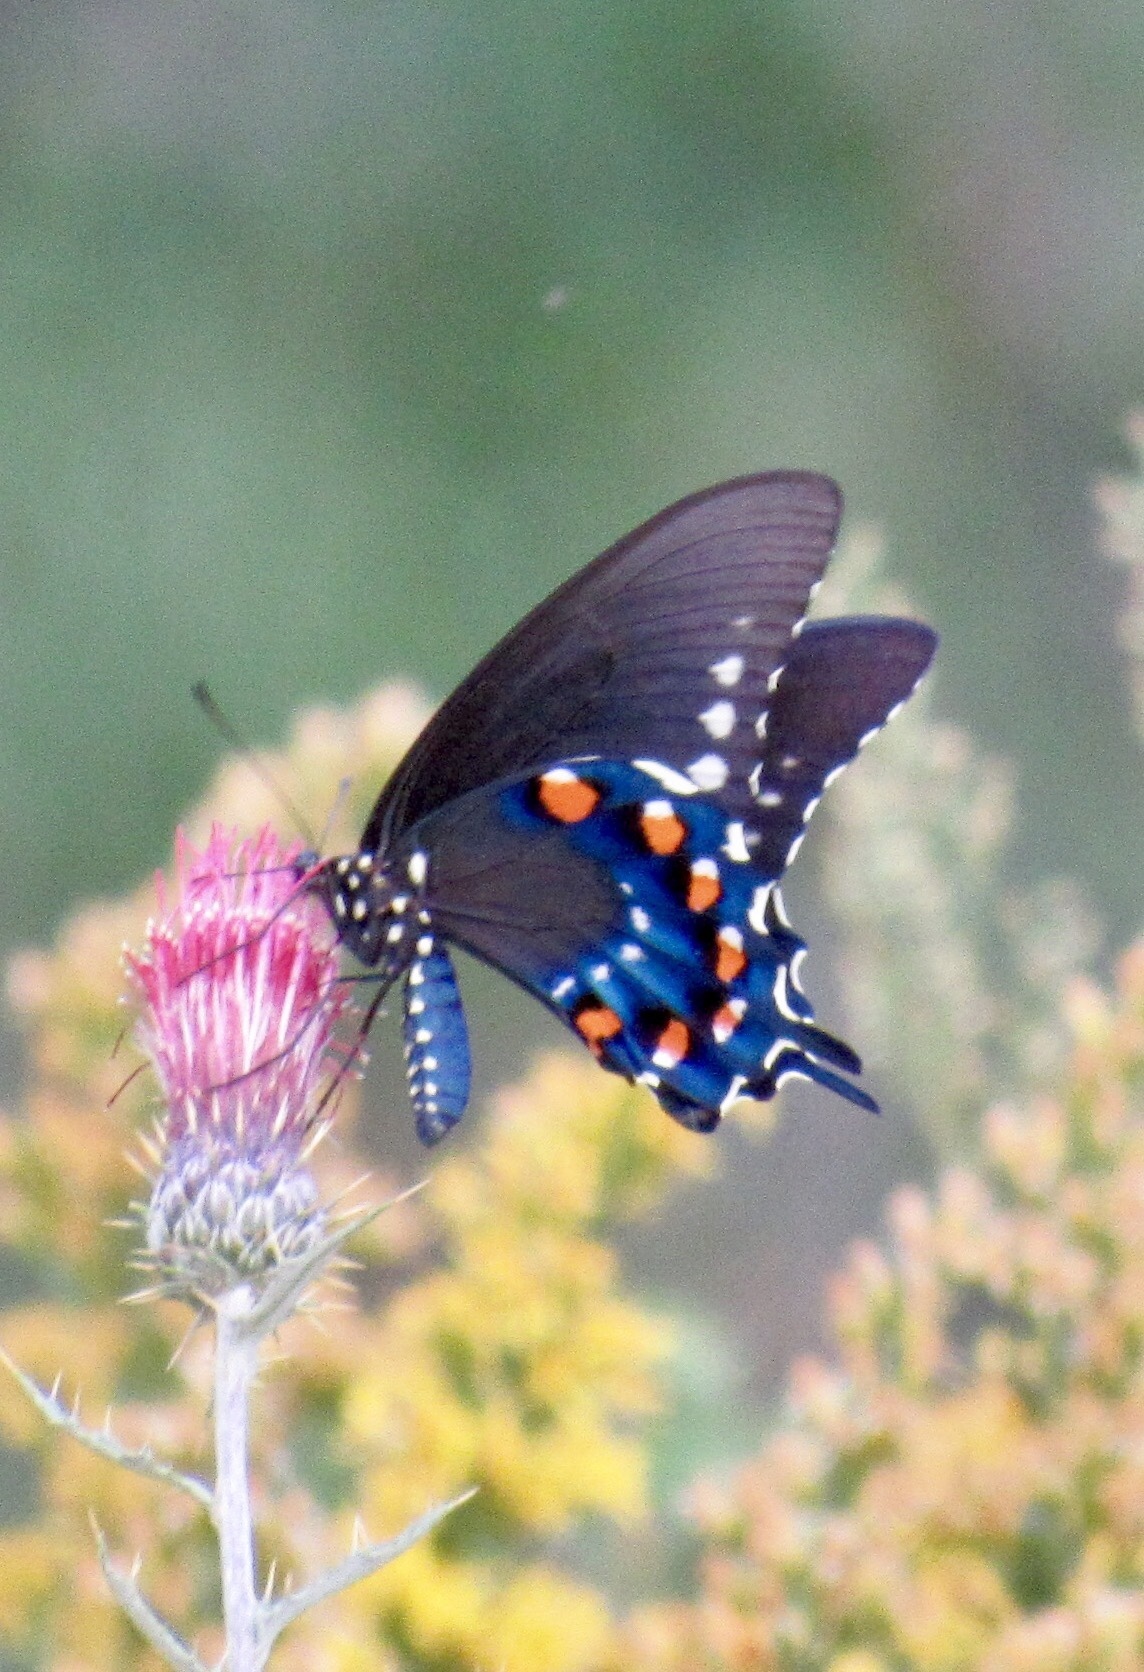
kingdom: Animalia
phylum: Arthropoda
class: Insecta
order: Lepidoptera
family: Papilionidae
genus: Battus
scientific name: Battus philenor
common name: Pipevine swallowtail
